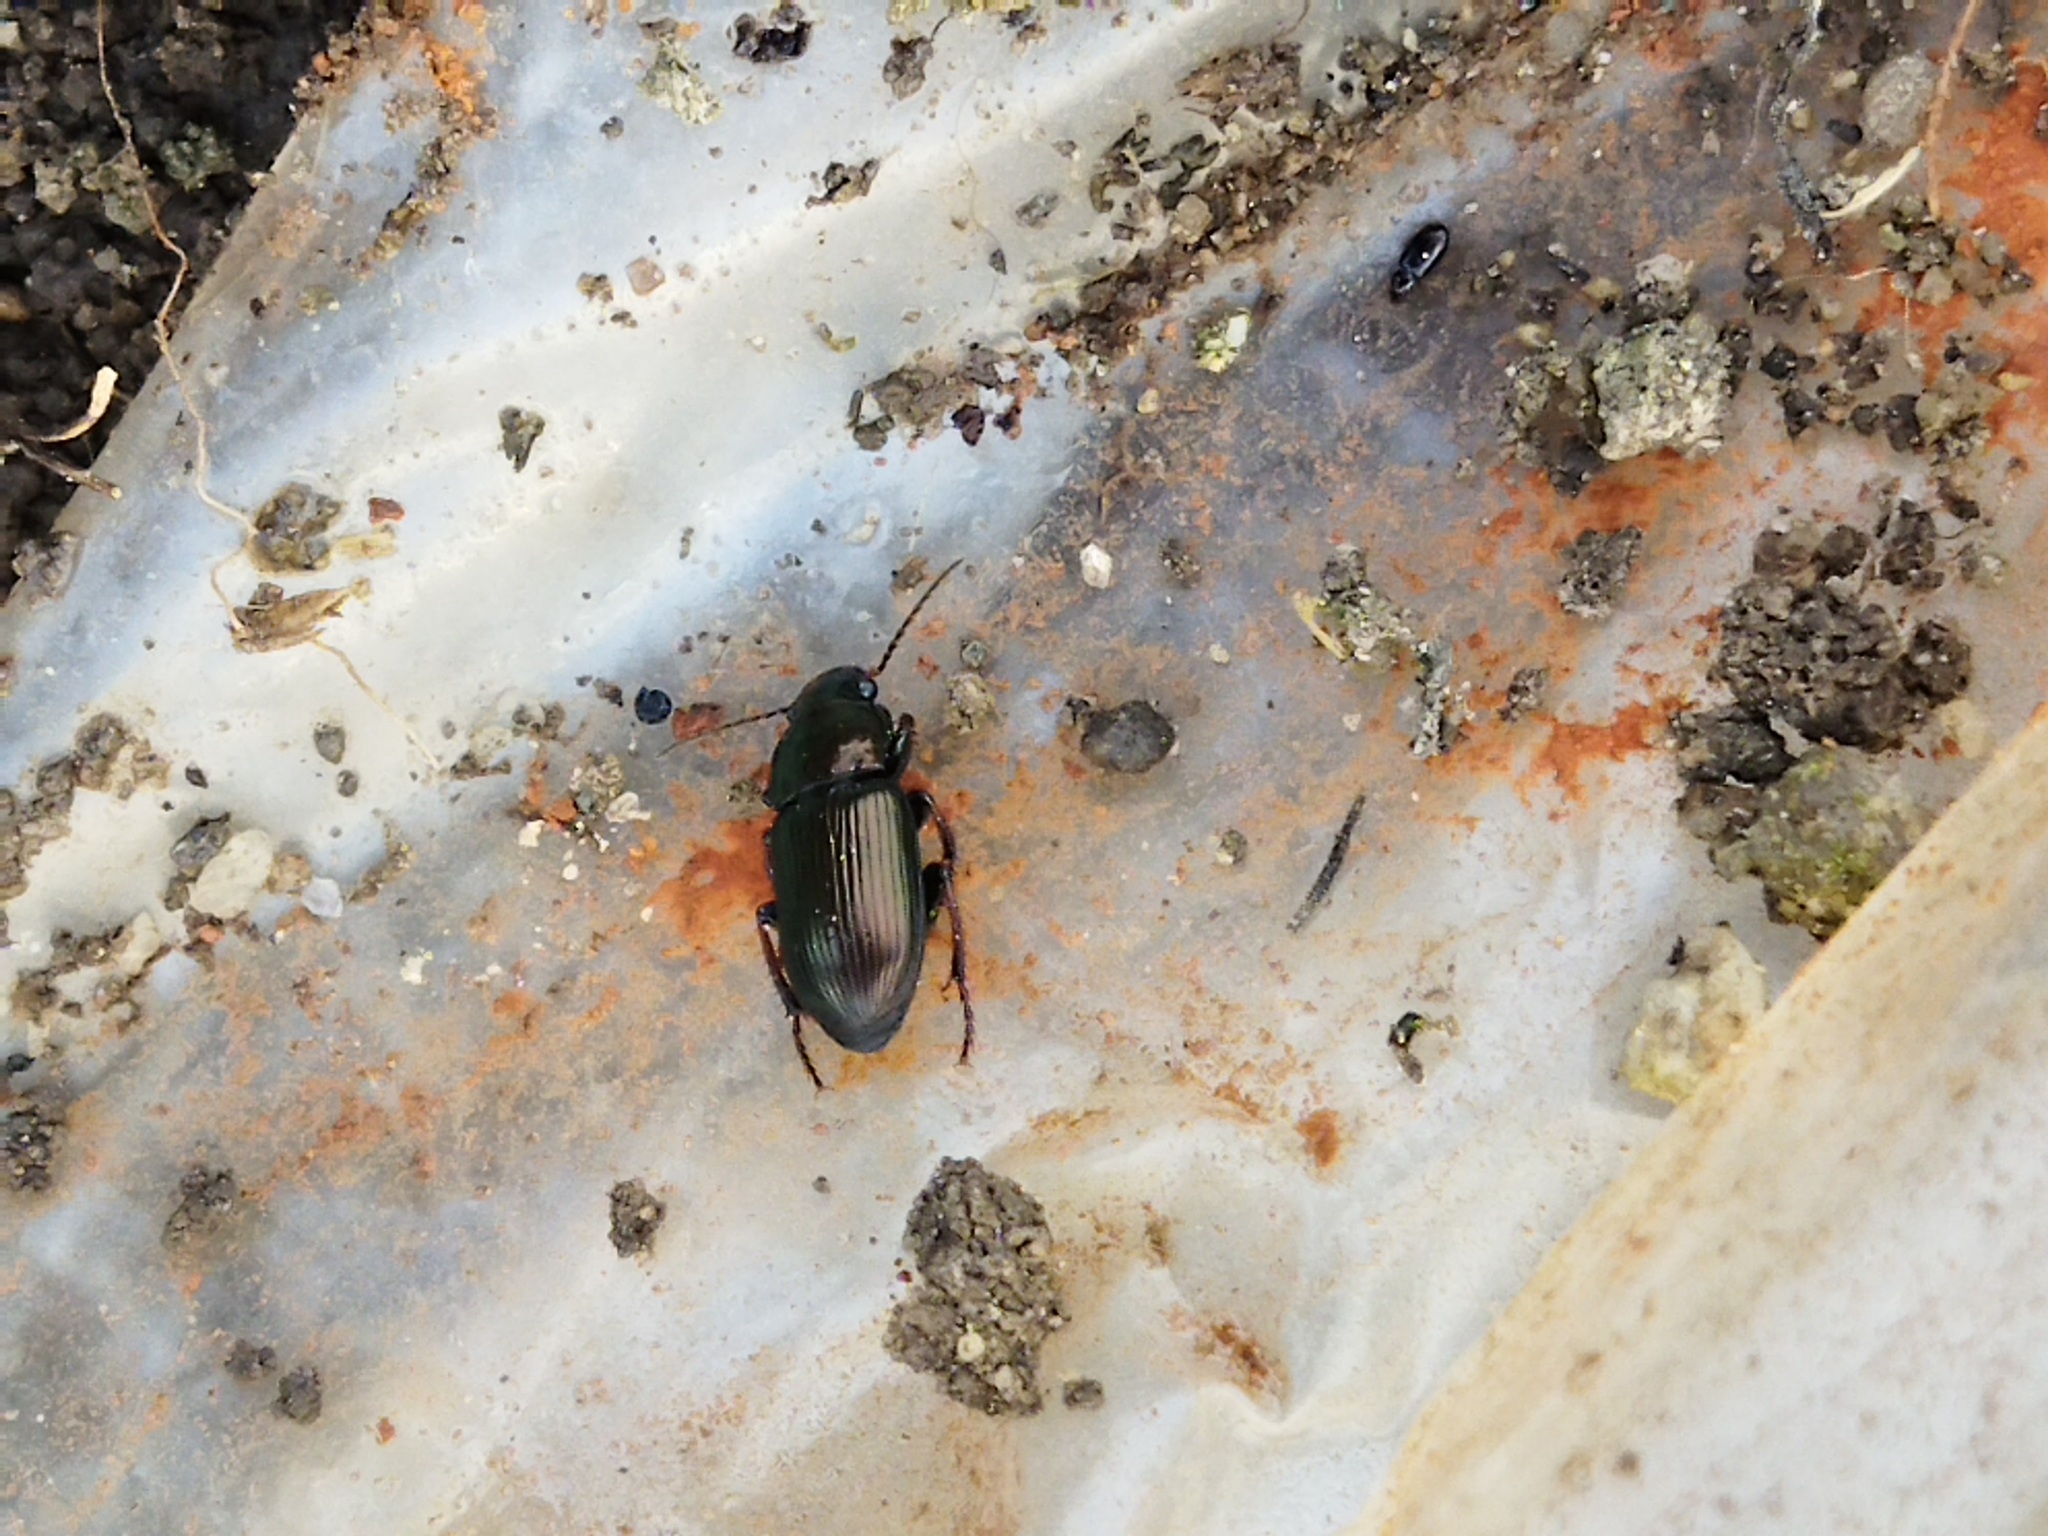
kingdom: Animalia
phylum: Arthropoda
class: Insecta
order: Coleoptera
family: Carabidae
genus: Harpalus
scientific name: Harpalus
